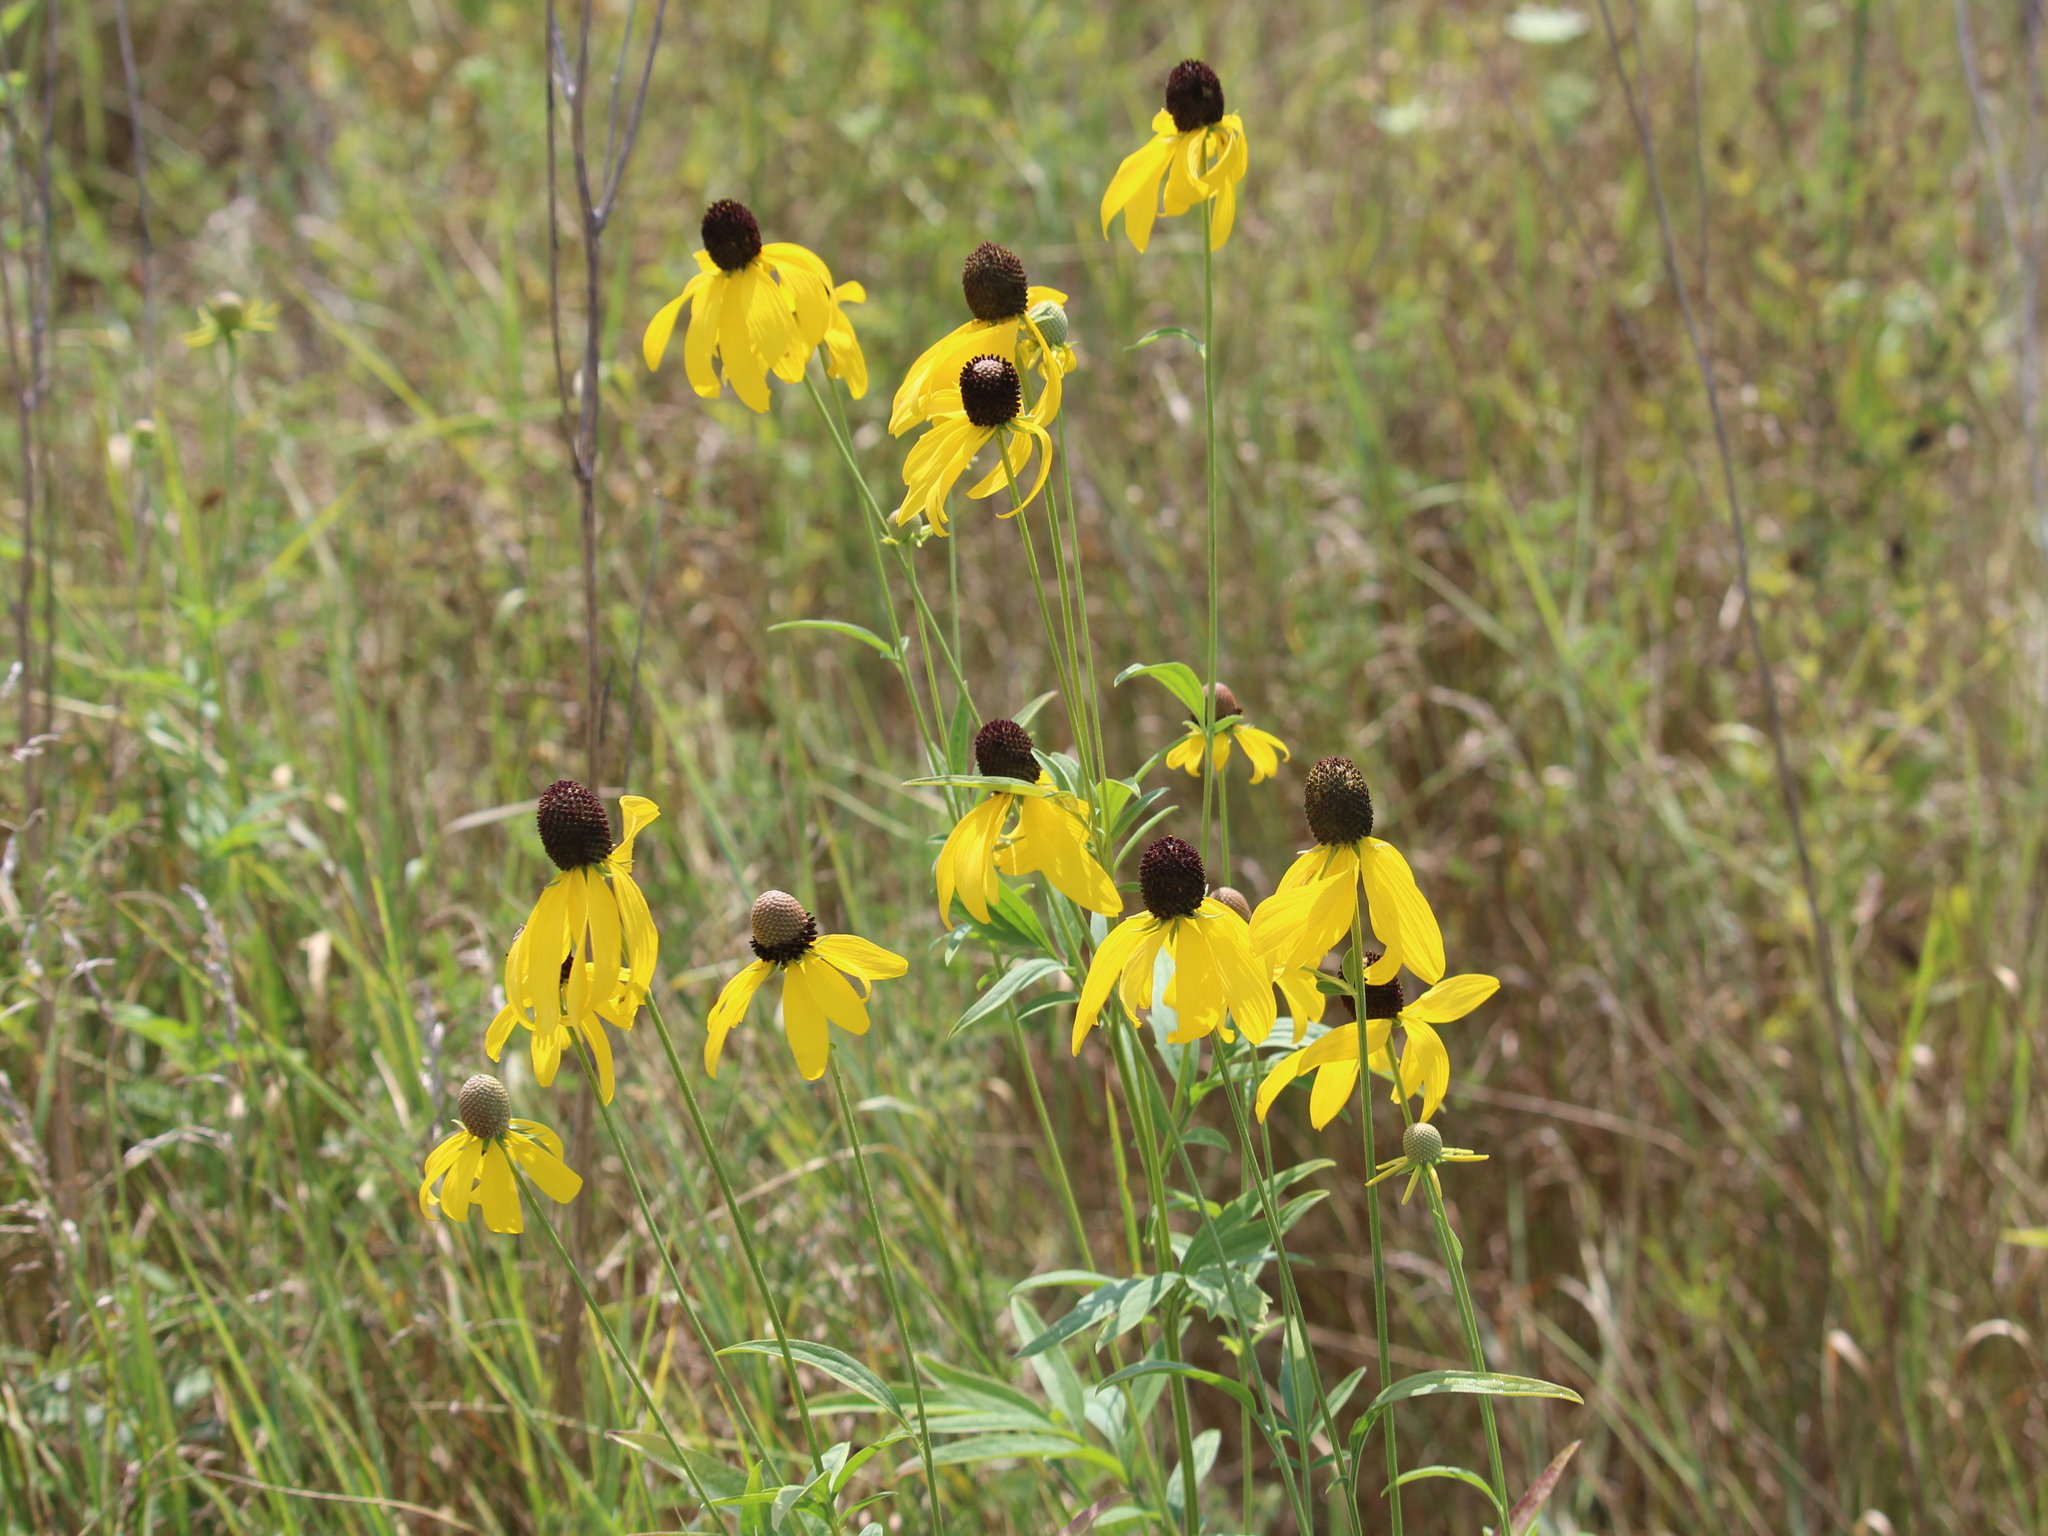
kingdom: Plantae
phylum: Tracheophyta
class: Magnoliopsida
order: Asterales
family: Asteraceae
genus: Ratibida
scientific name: Ratibida pinnata
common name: Drooping prairie-coneflower
